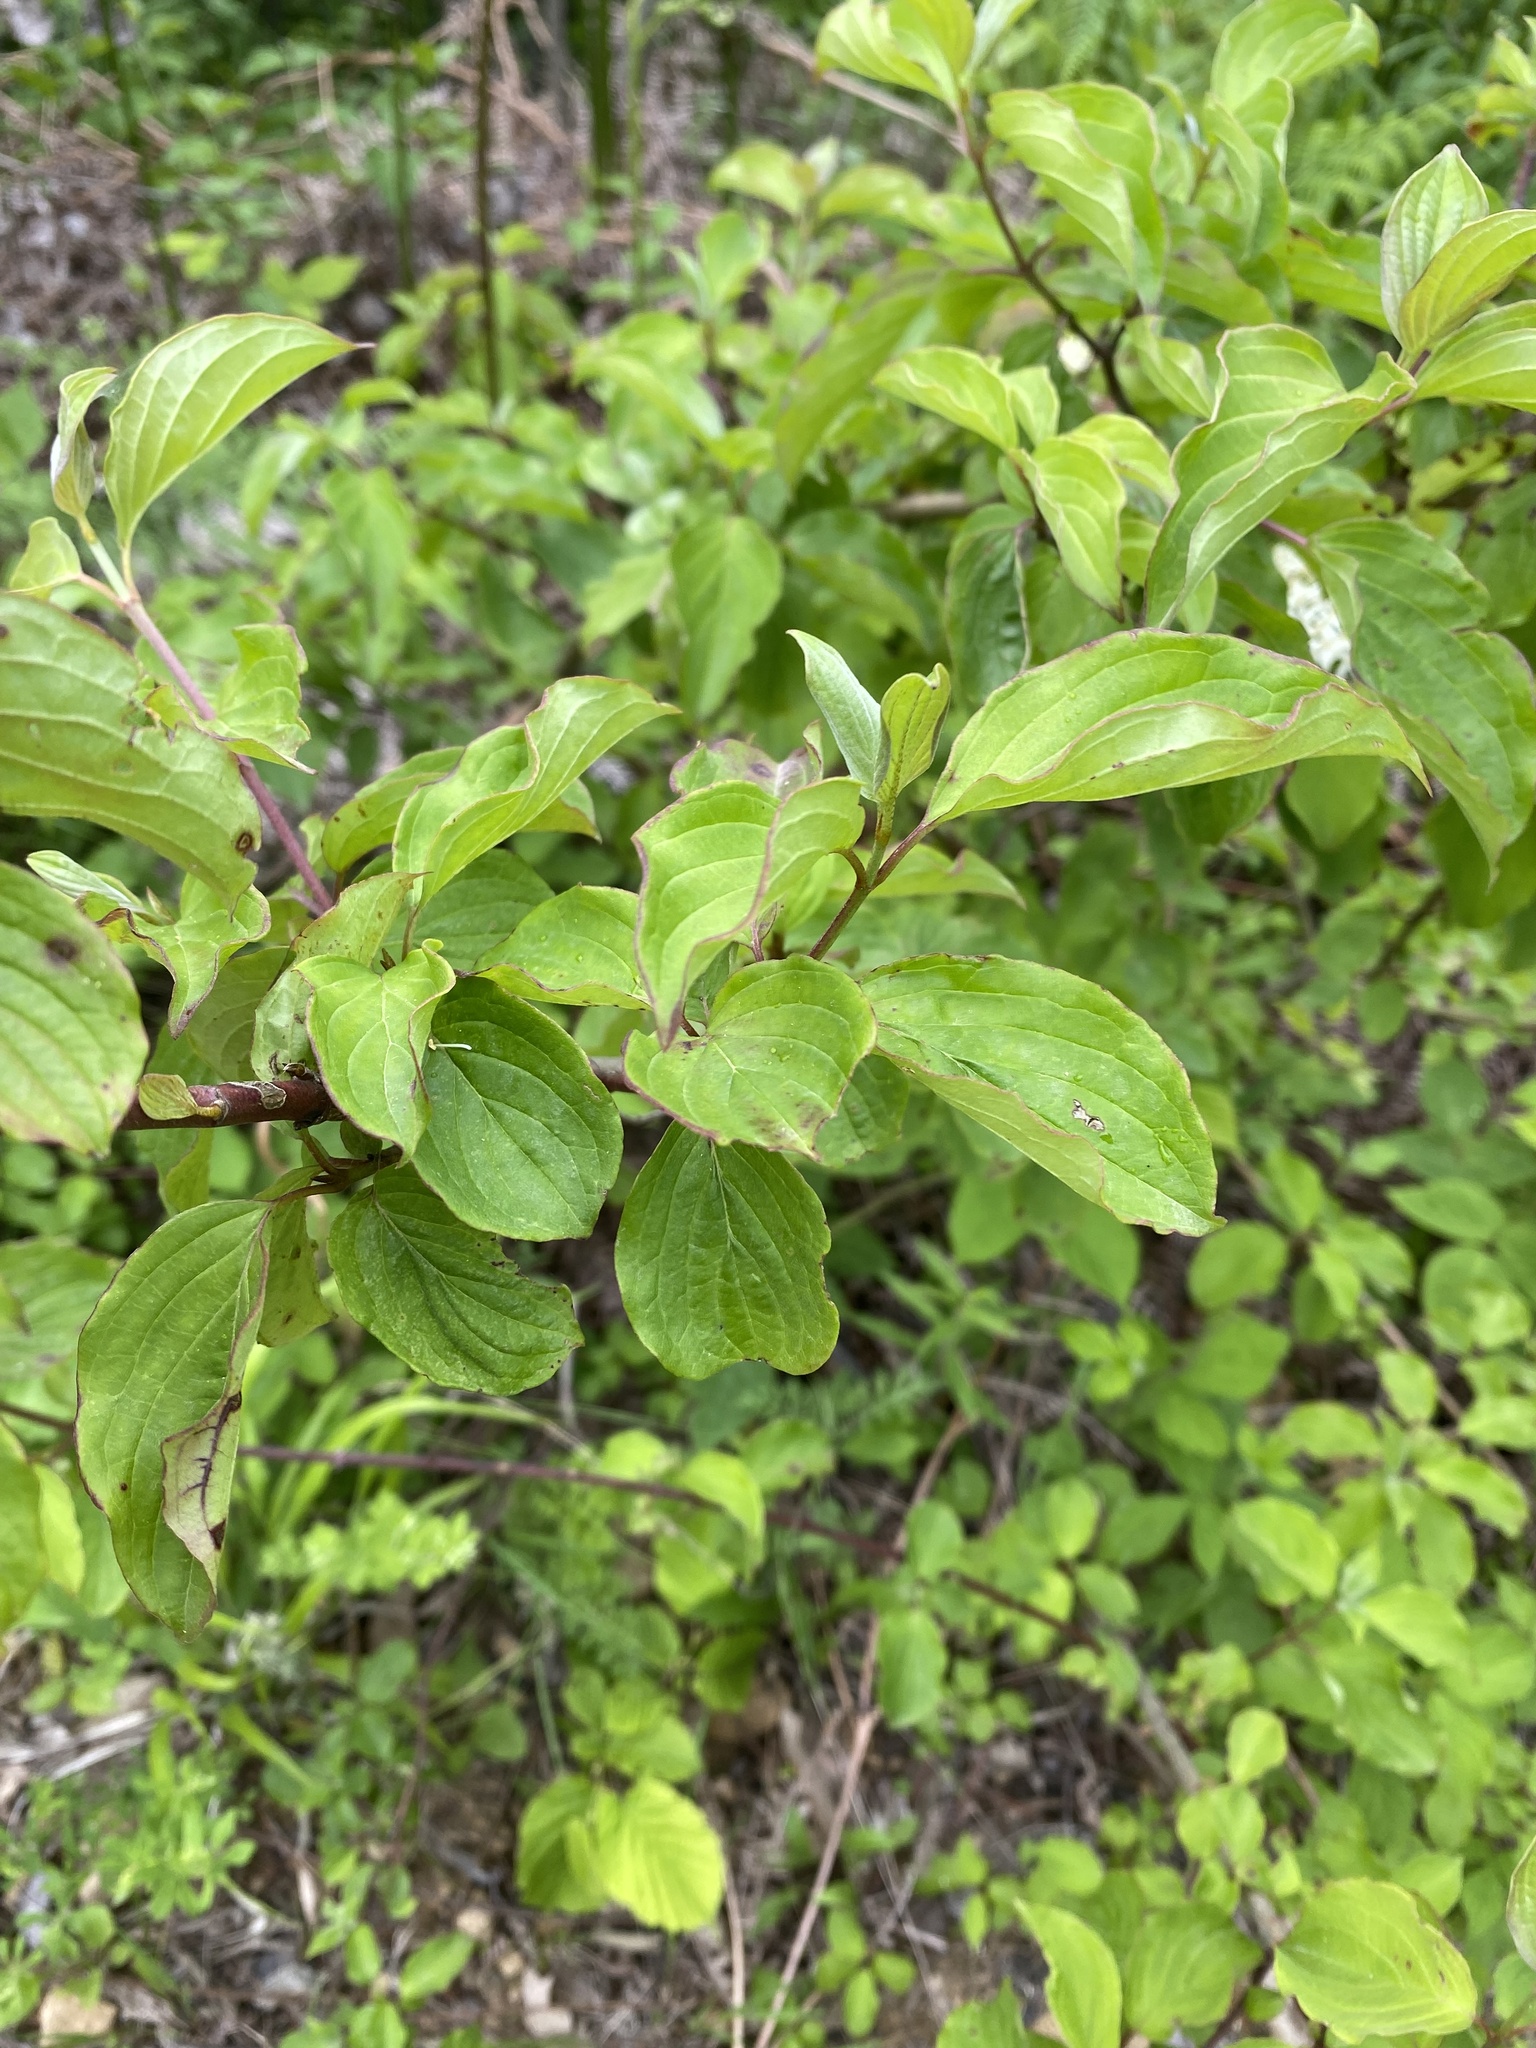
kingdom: Plantae
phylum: Tracheophyta
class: Magnoliopsida
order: Cornales
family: Cornaceae
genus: Cornus
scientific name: Cornus sanguinea
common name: Dogwood
